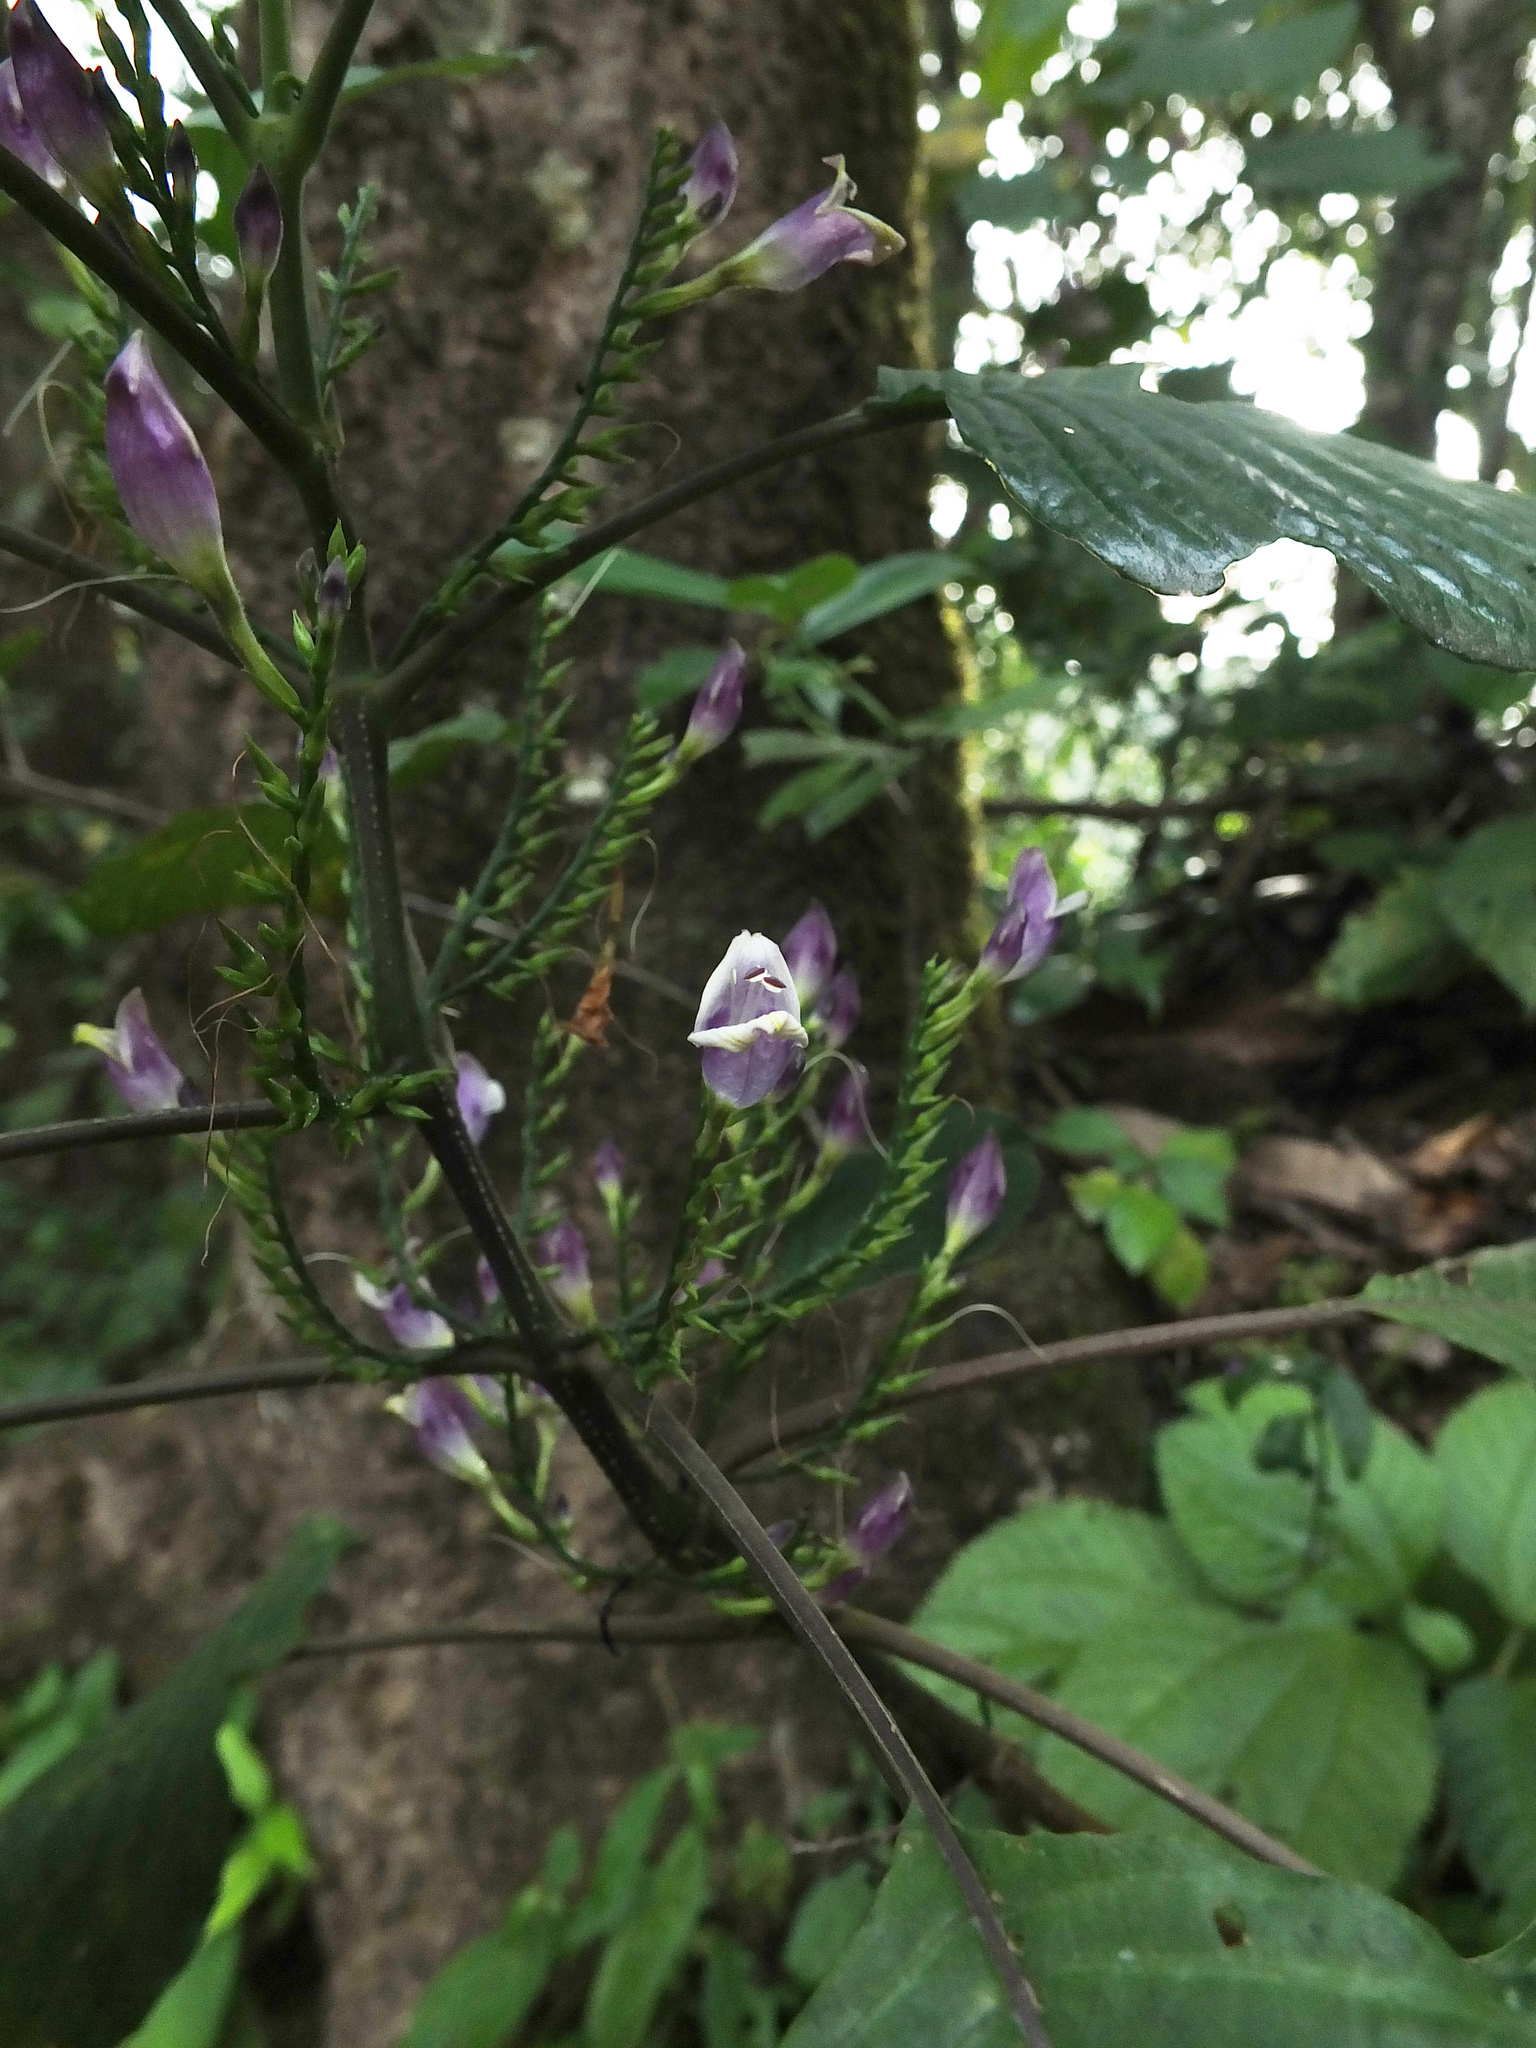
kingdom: Plantae
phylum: Tracheophyta
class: Magnoliopsida
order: Lamiales
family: Acanthaceae
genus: Gymnostachyum
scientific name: Gymnostachyum warrierianum
